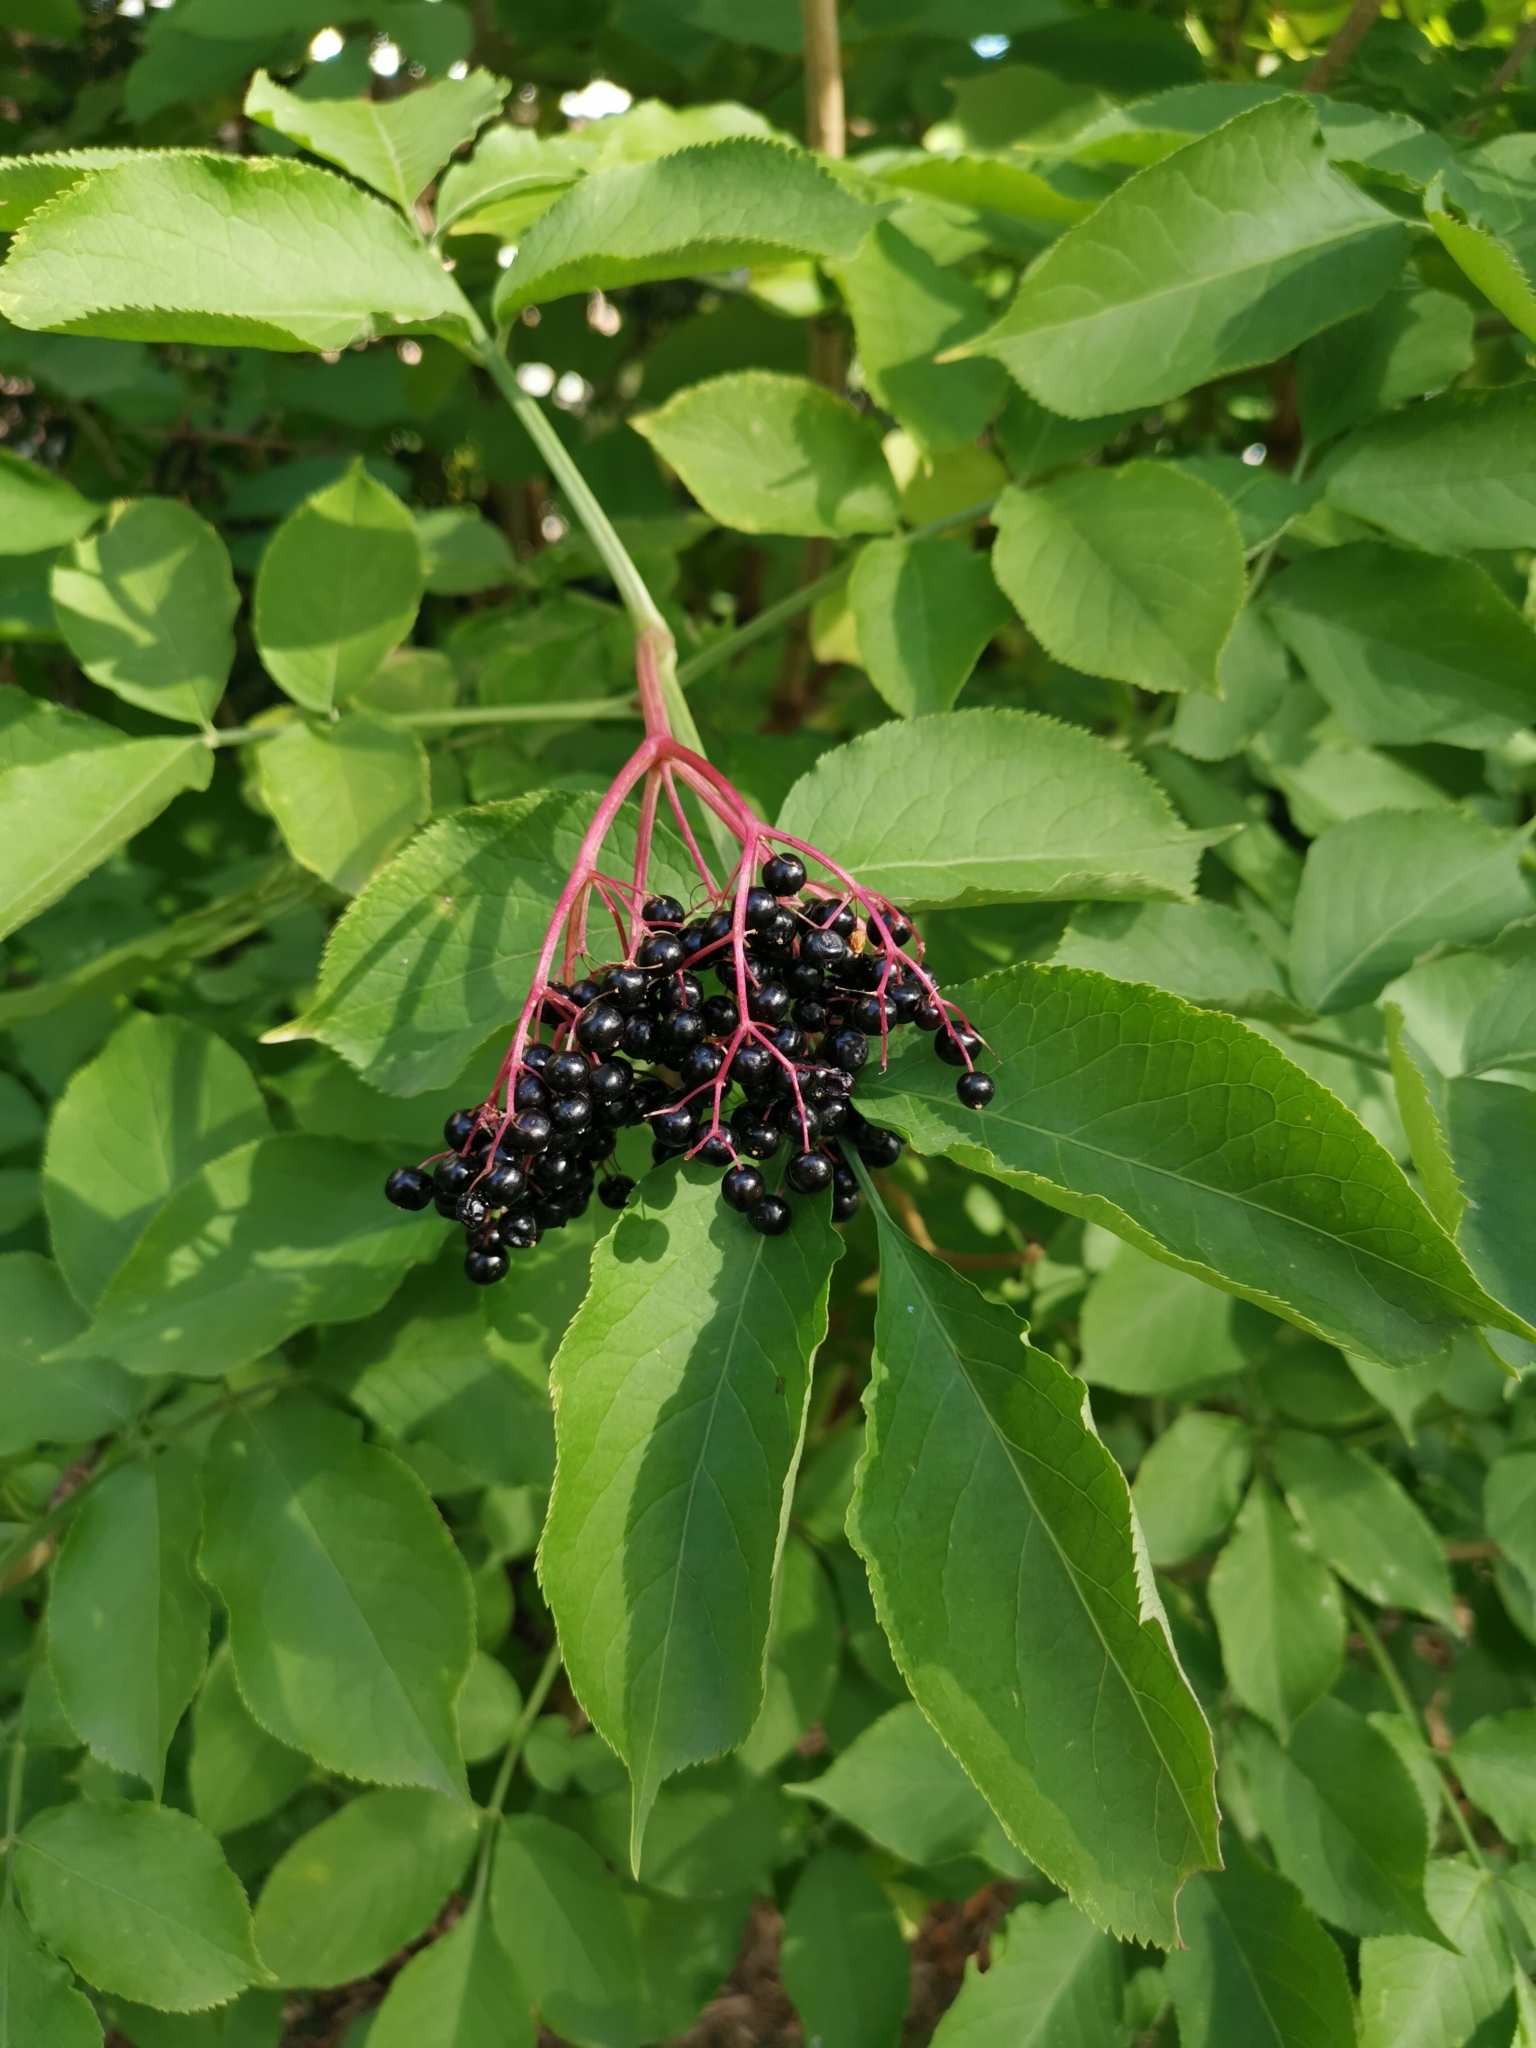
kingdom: Plantae
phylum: Tracheophyta
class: Magnoliopsida
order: Dipsacales
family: Viburnaceae
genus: Sambucus
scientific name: Sambucus nigra
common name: Elder
